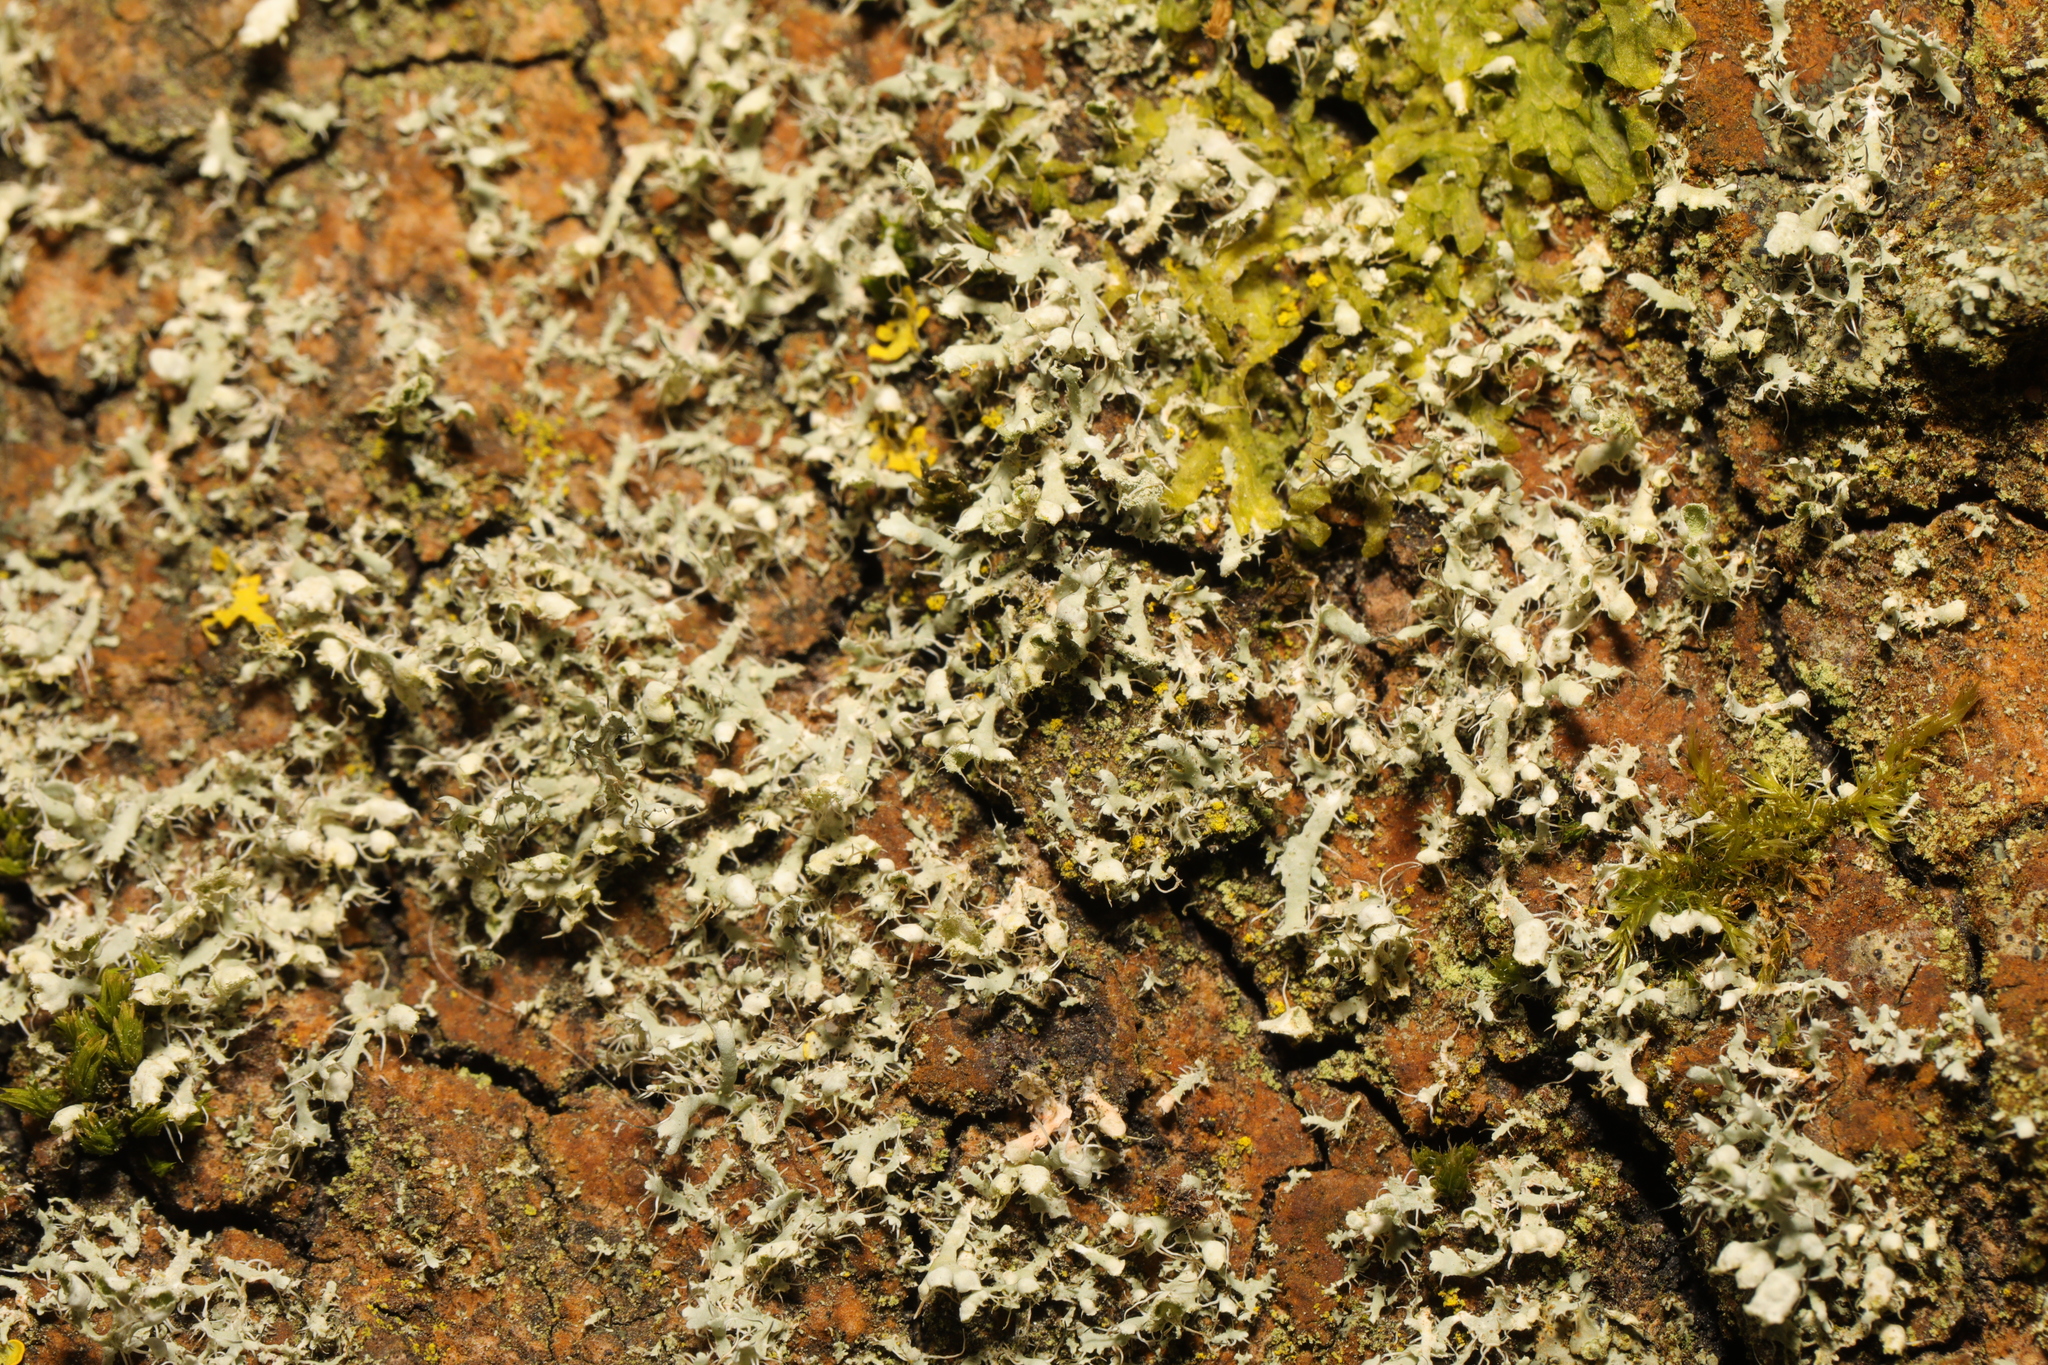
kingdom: Fungi
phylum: Ascomycota
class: Lecanoromycetes
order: Caliciales
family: Physciaceae
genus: Physcia
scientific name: Physcia adscendens
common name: Hooded rosette lichen
